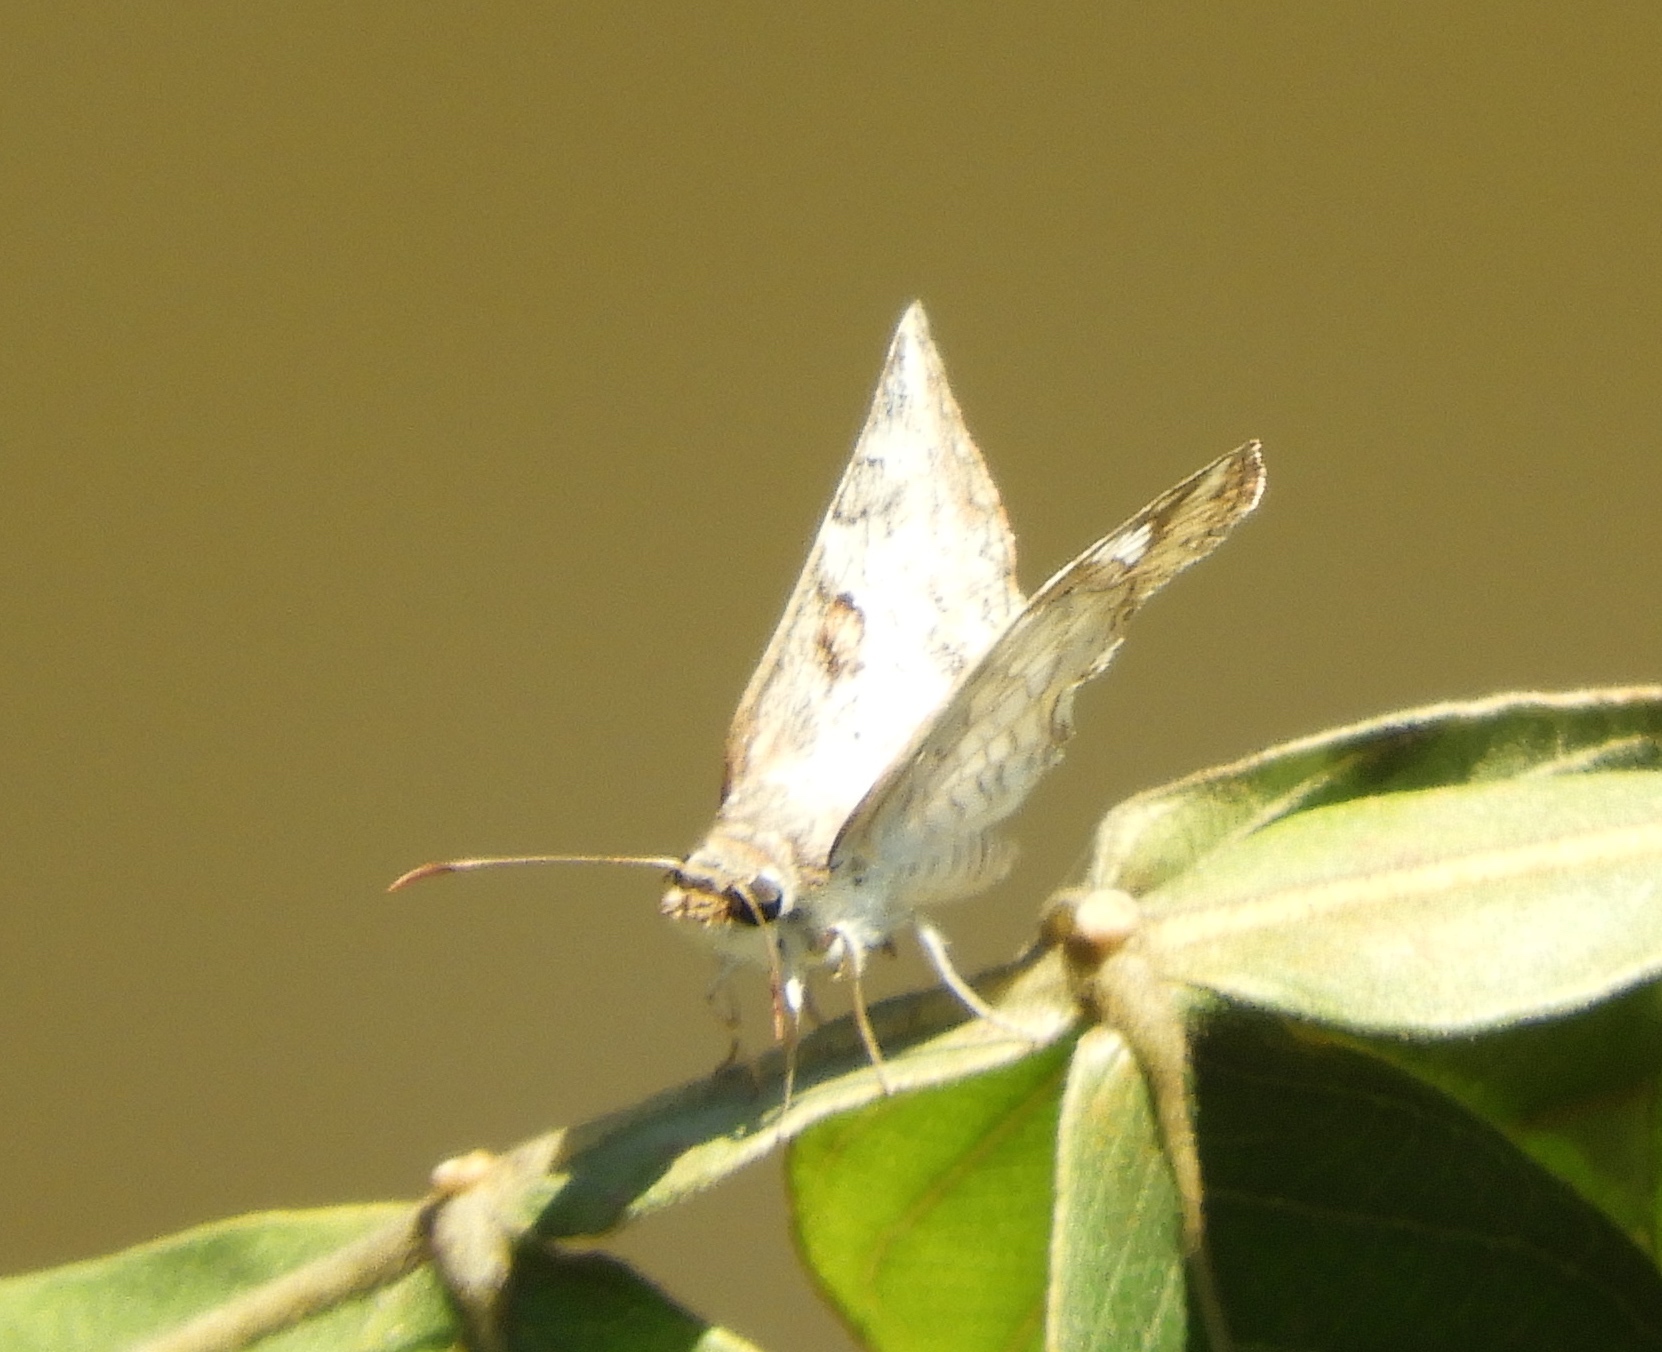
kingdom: Animalia
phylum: Arthropoda
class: Insecta
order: Lepidoptera
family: Hesperiidae
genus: Antigonus
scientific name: Antigonus emorsa
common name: White spurwing
